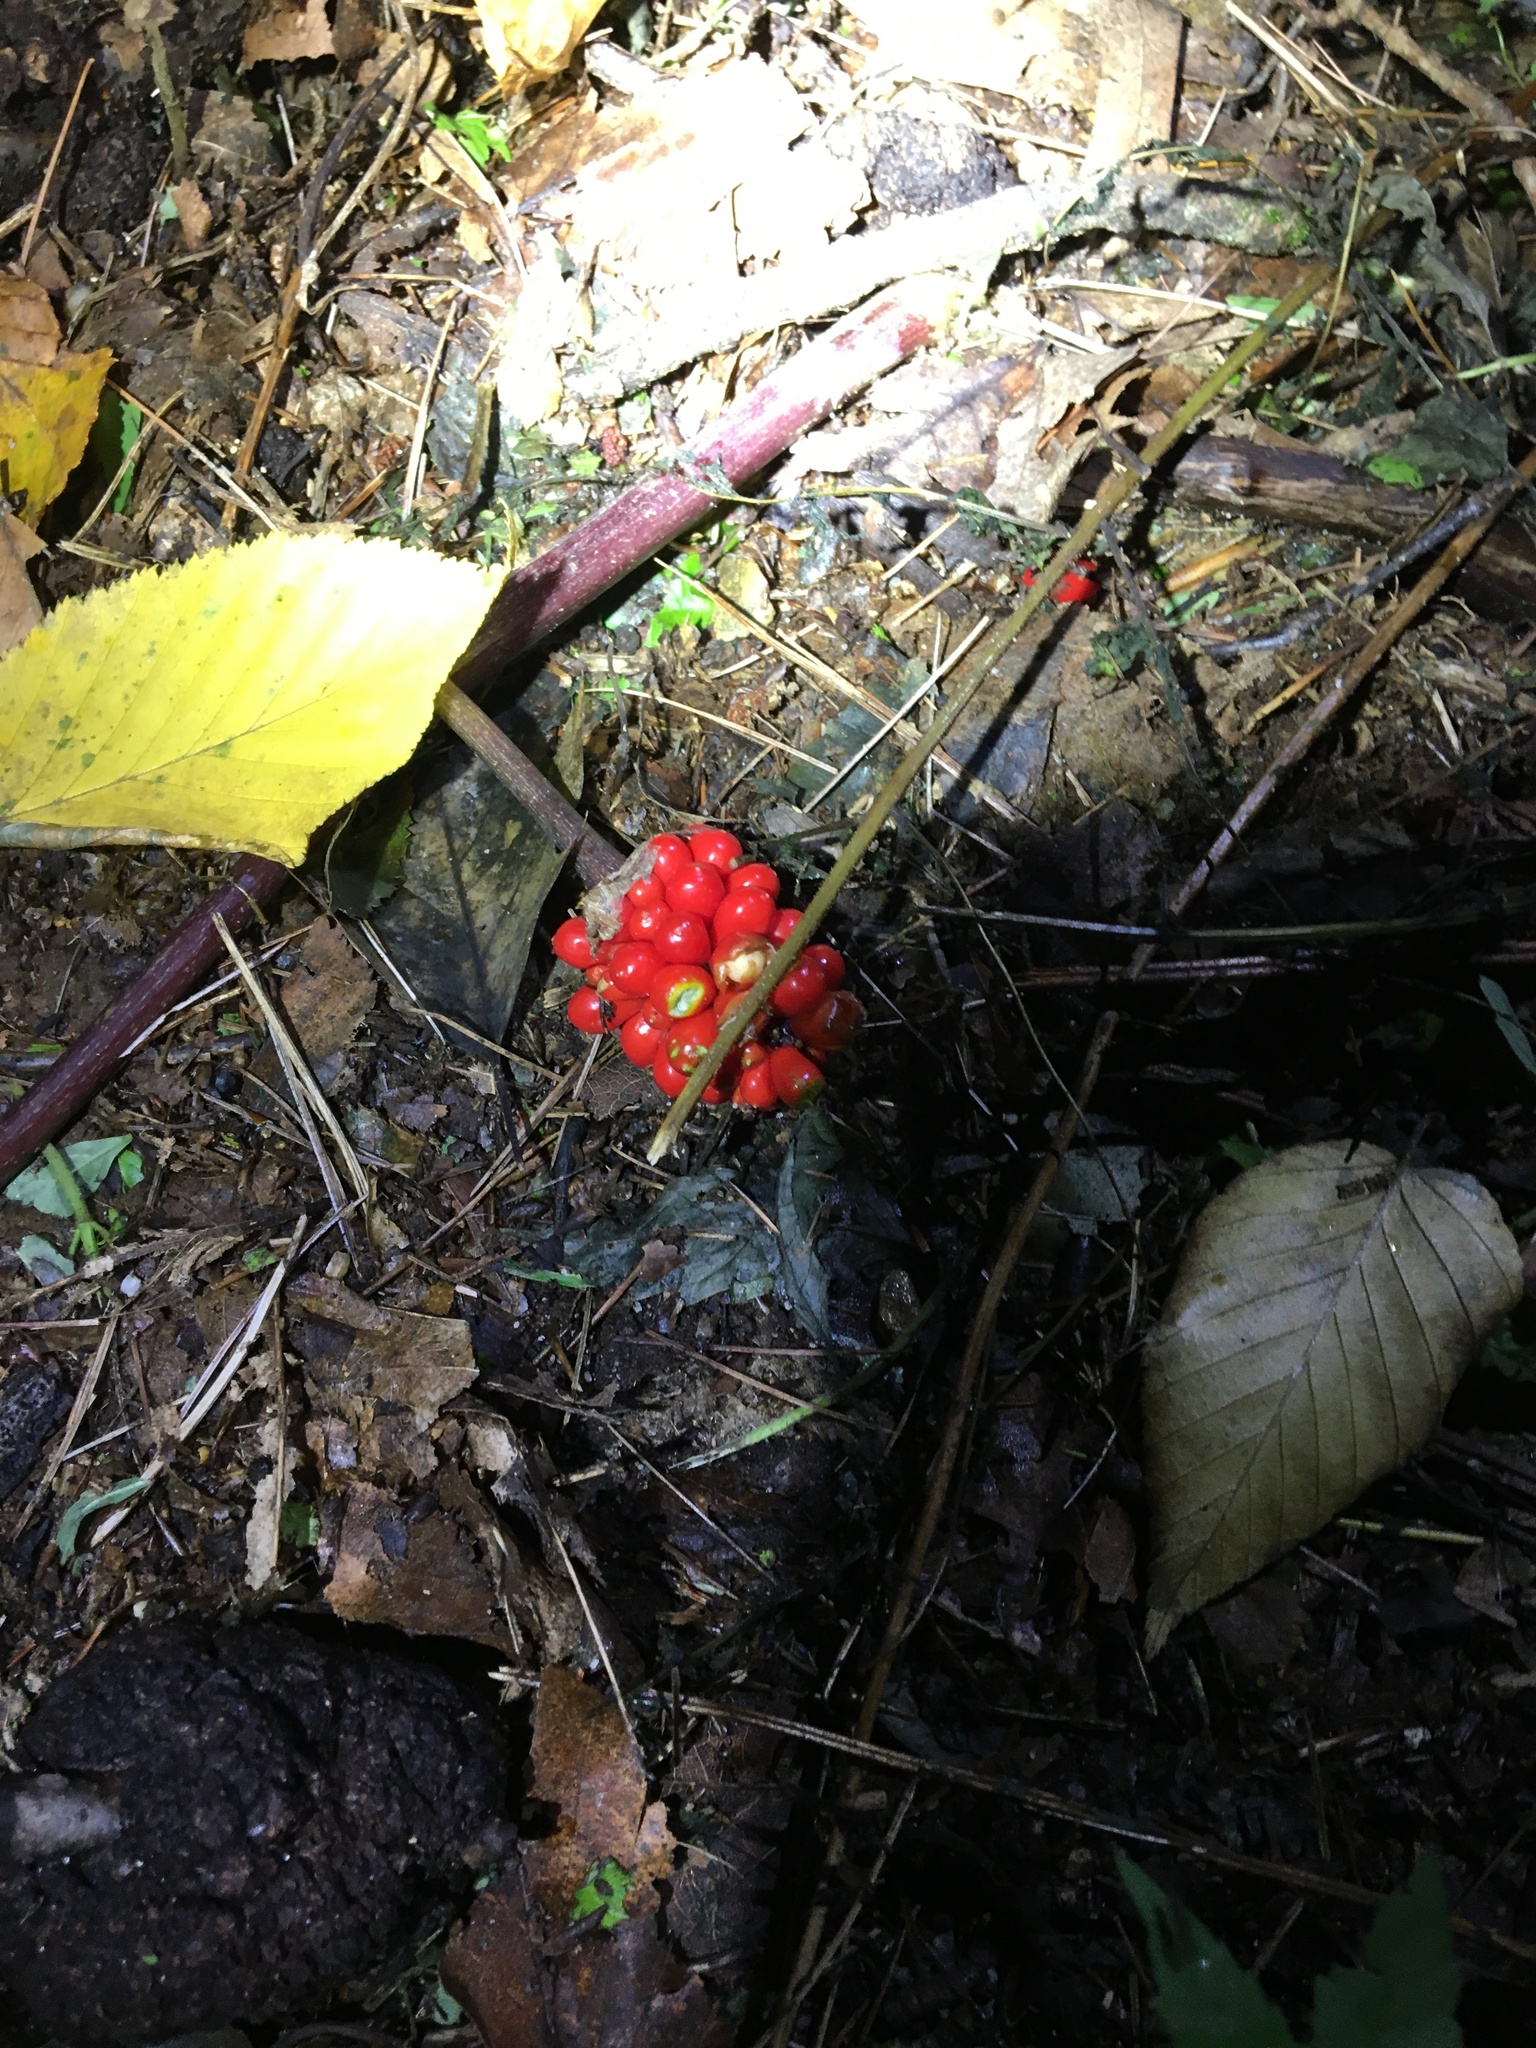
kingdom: Plantae
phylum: Tracheophyta
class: Liliopsida
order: Alismatales
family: Araceae
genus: Arisaema
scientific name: Arisaema triphyllum
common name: Jack-in-the-pulpit
